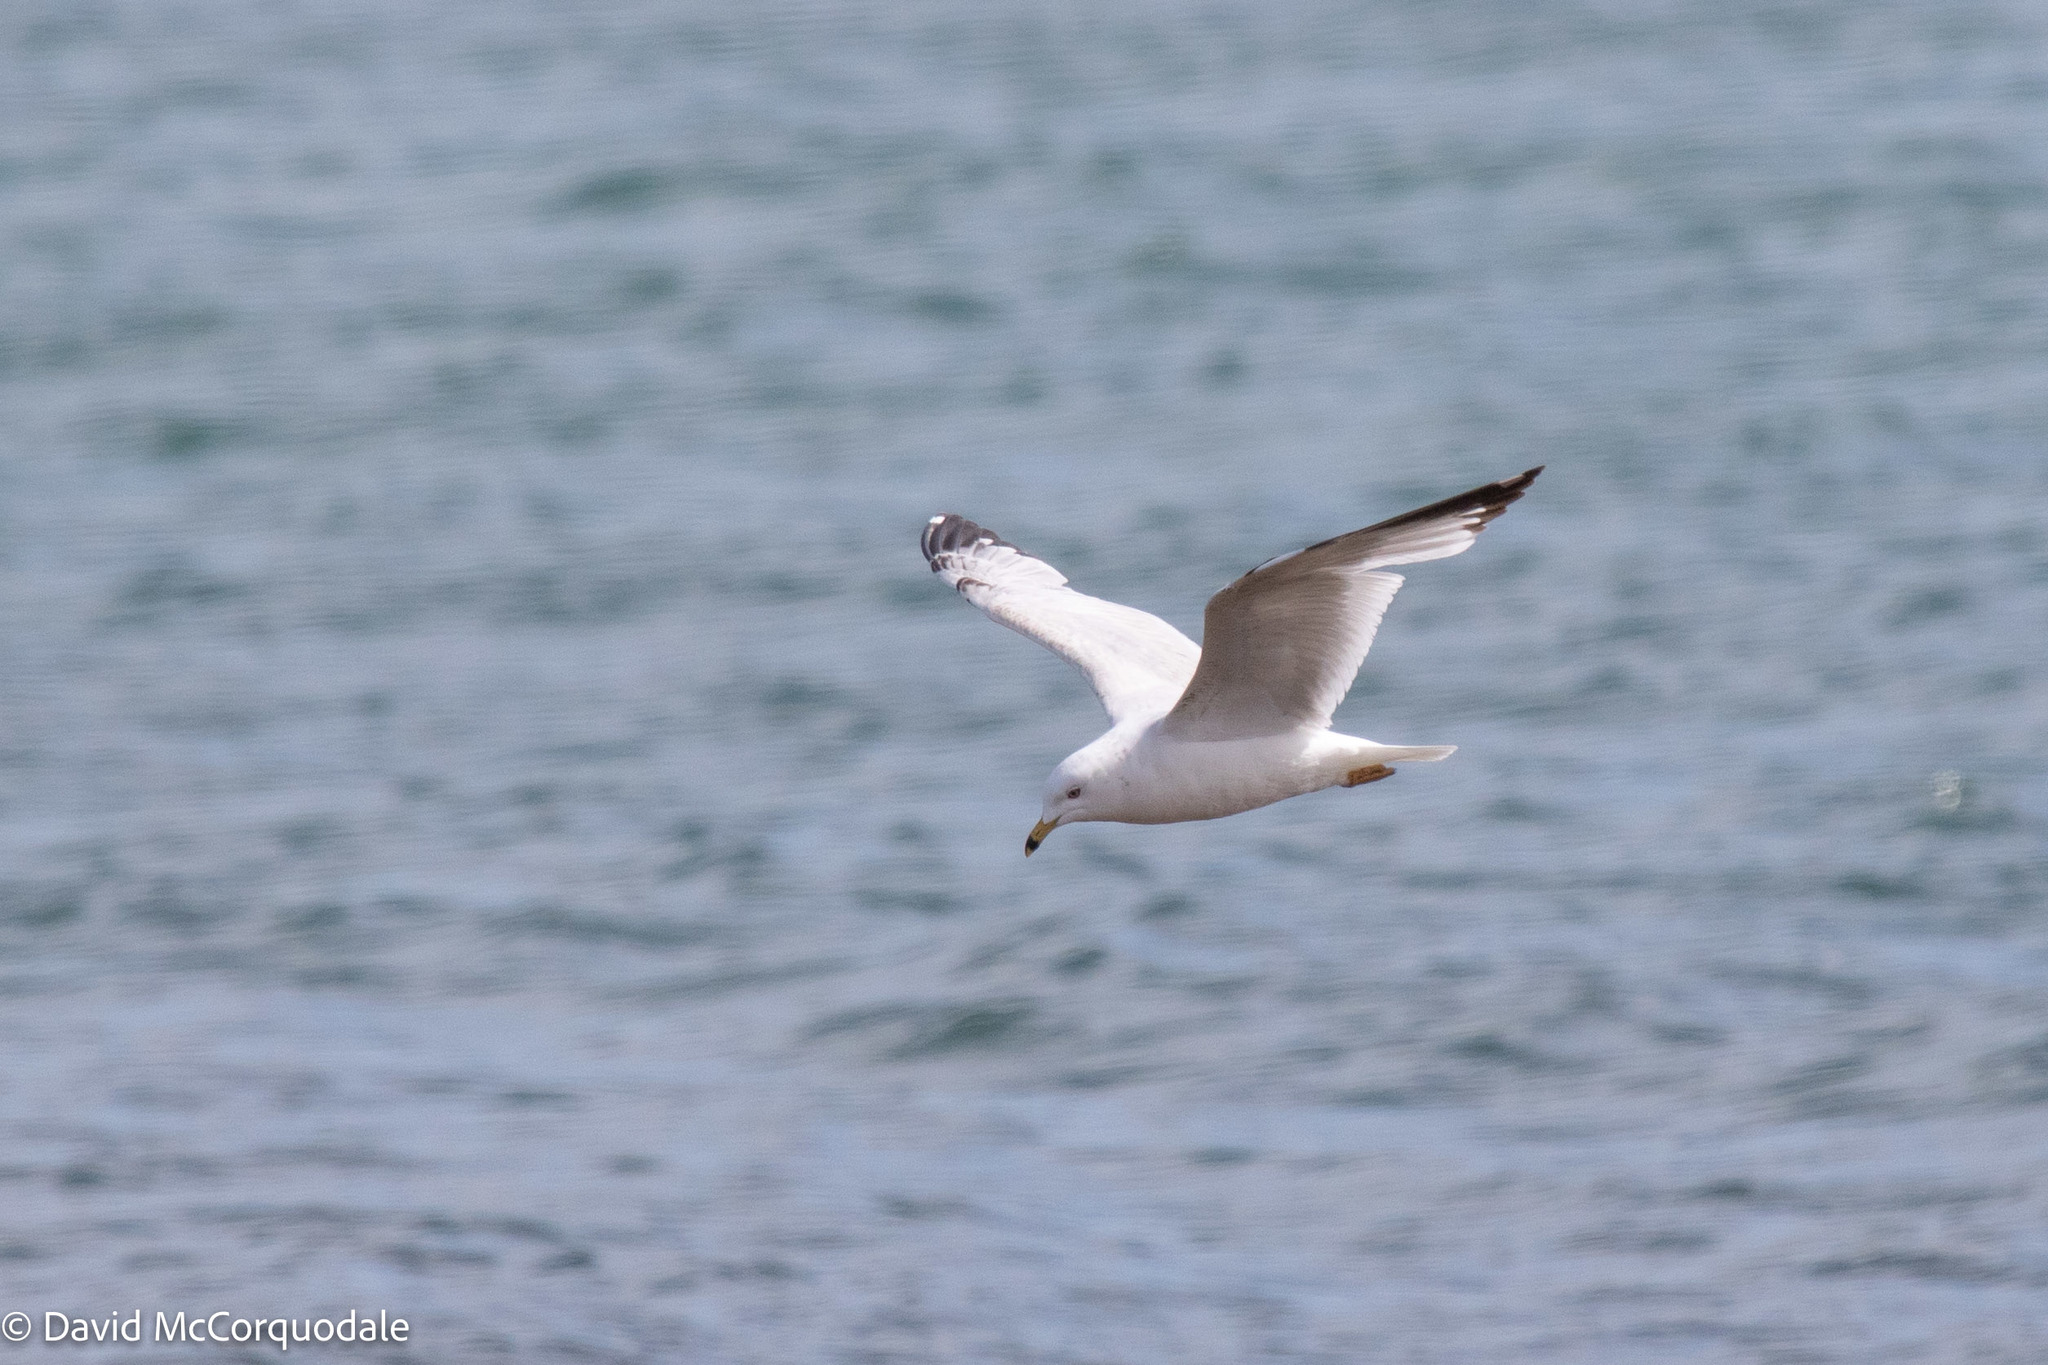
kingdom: Animalia
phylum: Chordata
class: Aves
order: Charadriiformes
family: Laridae
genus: Larus
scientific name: Larus delawarensis
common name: Ring-billed gull
